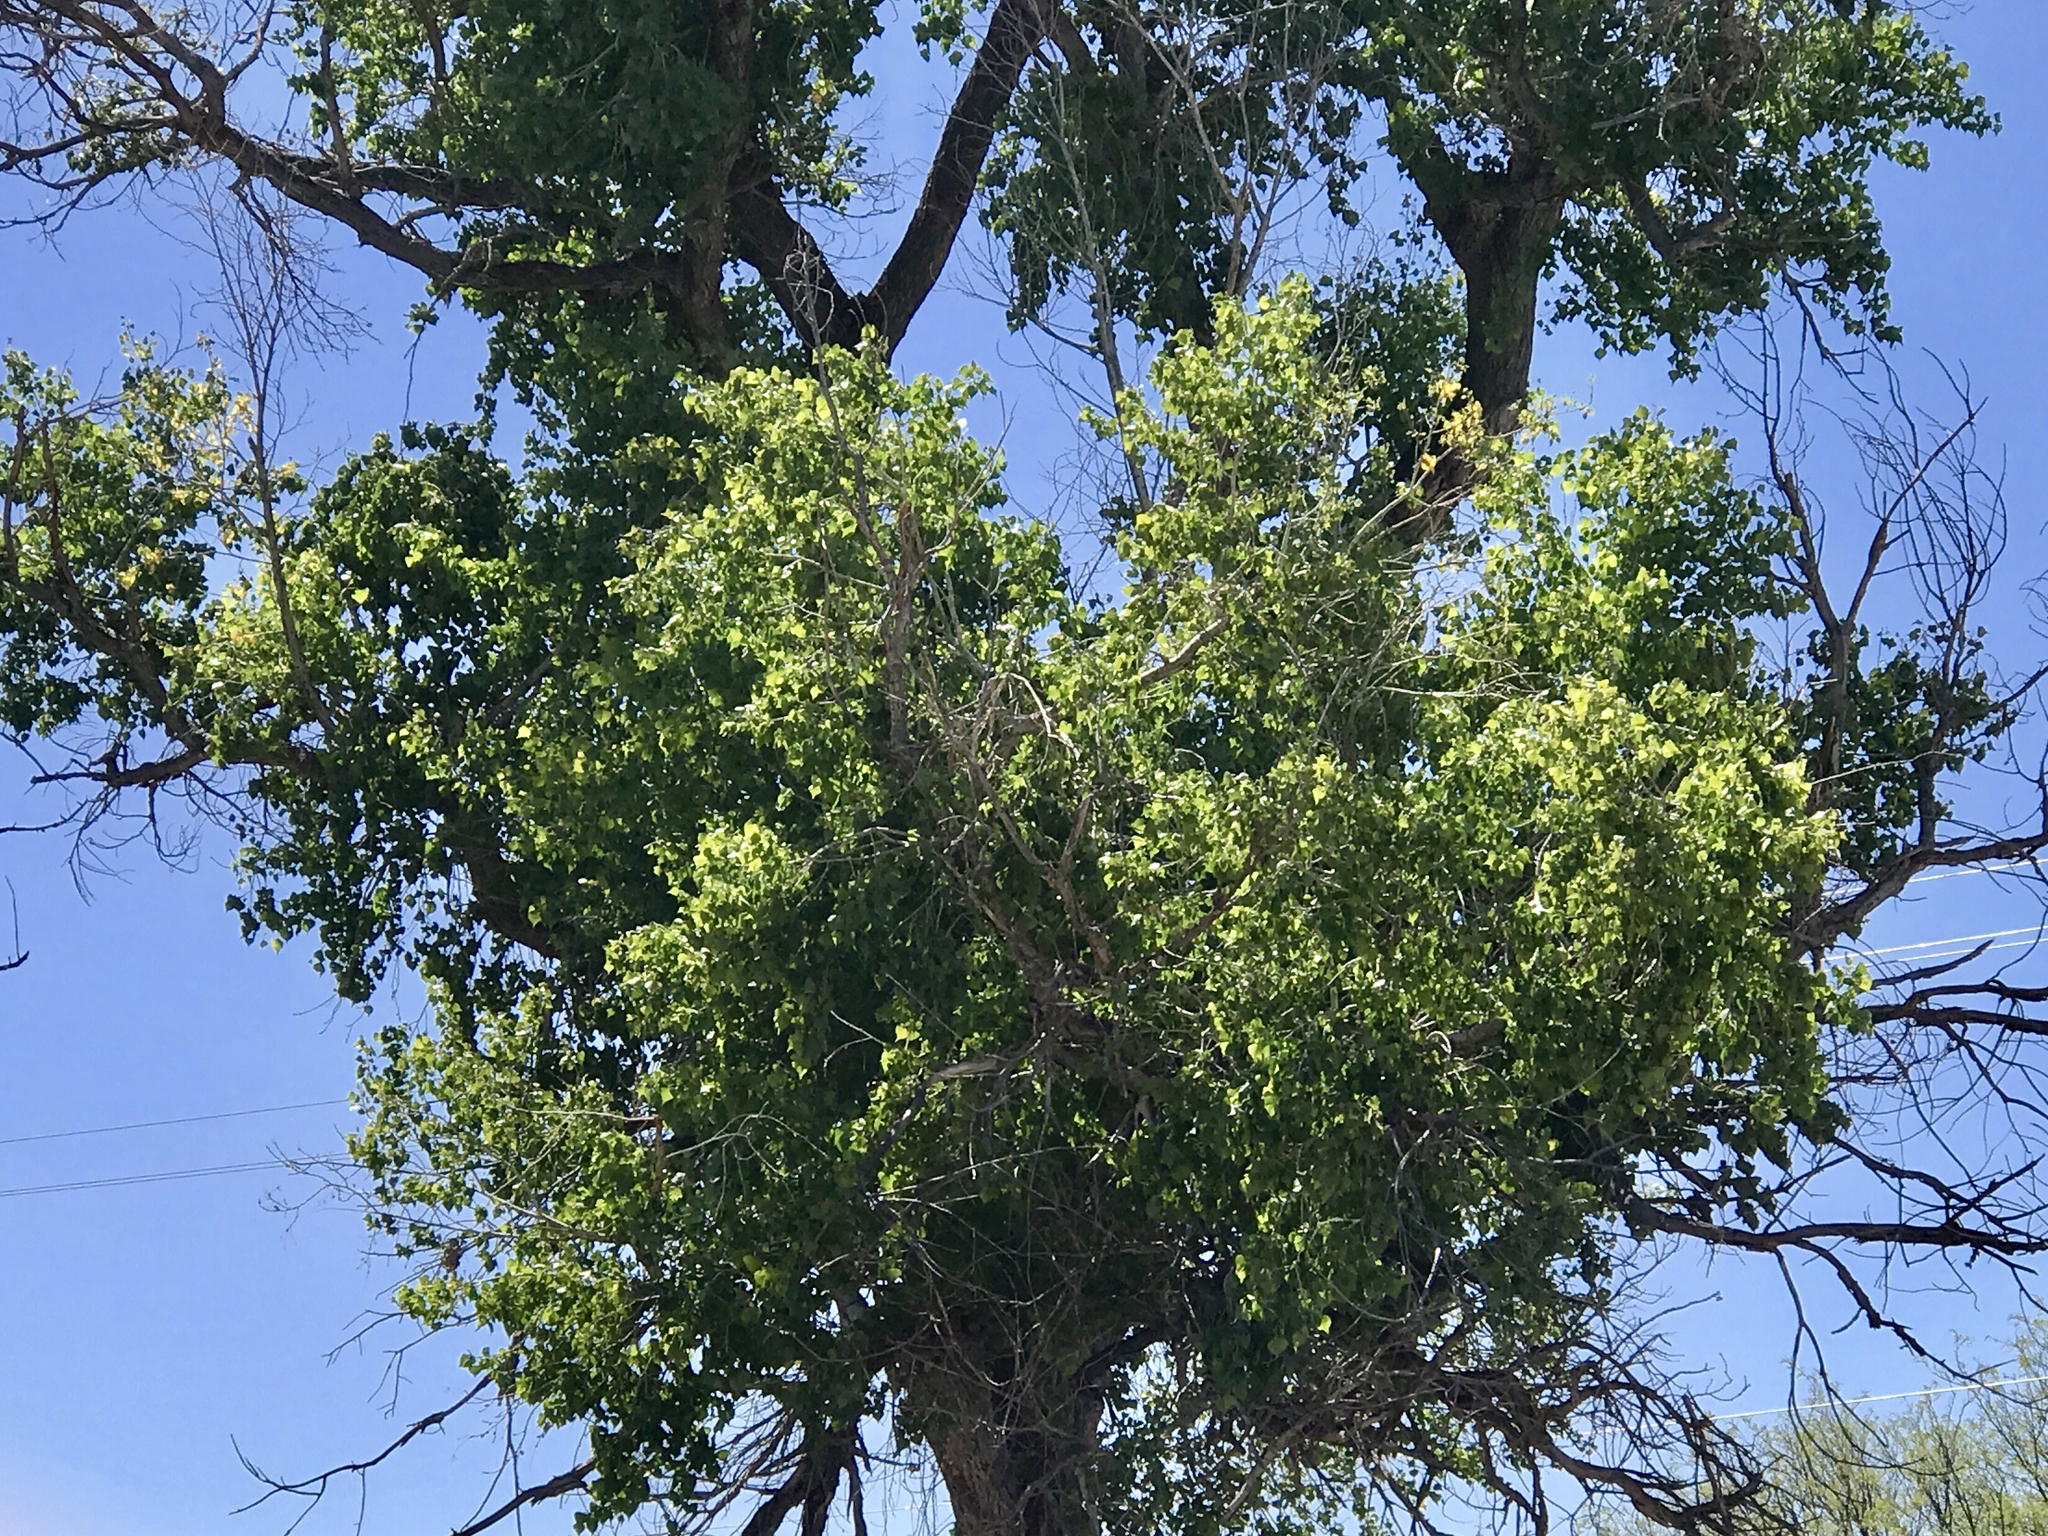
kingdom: Plantae
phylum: Tracheophyta
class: Magnoliopsida
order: Malpighiales
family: Salicaceae
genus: Populus
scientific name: Populus fremontii
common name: Fremont's cottonwood
